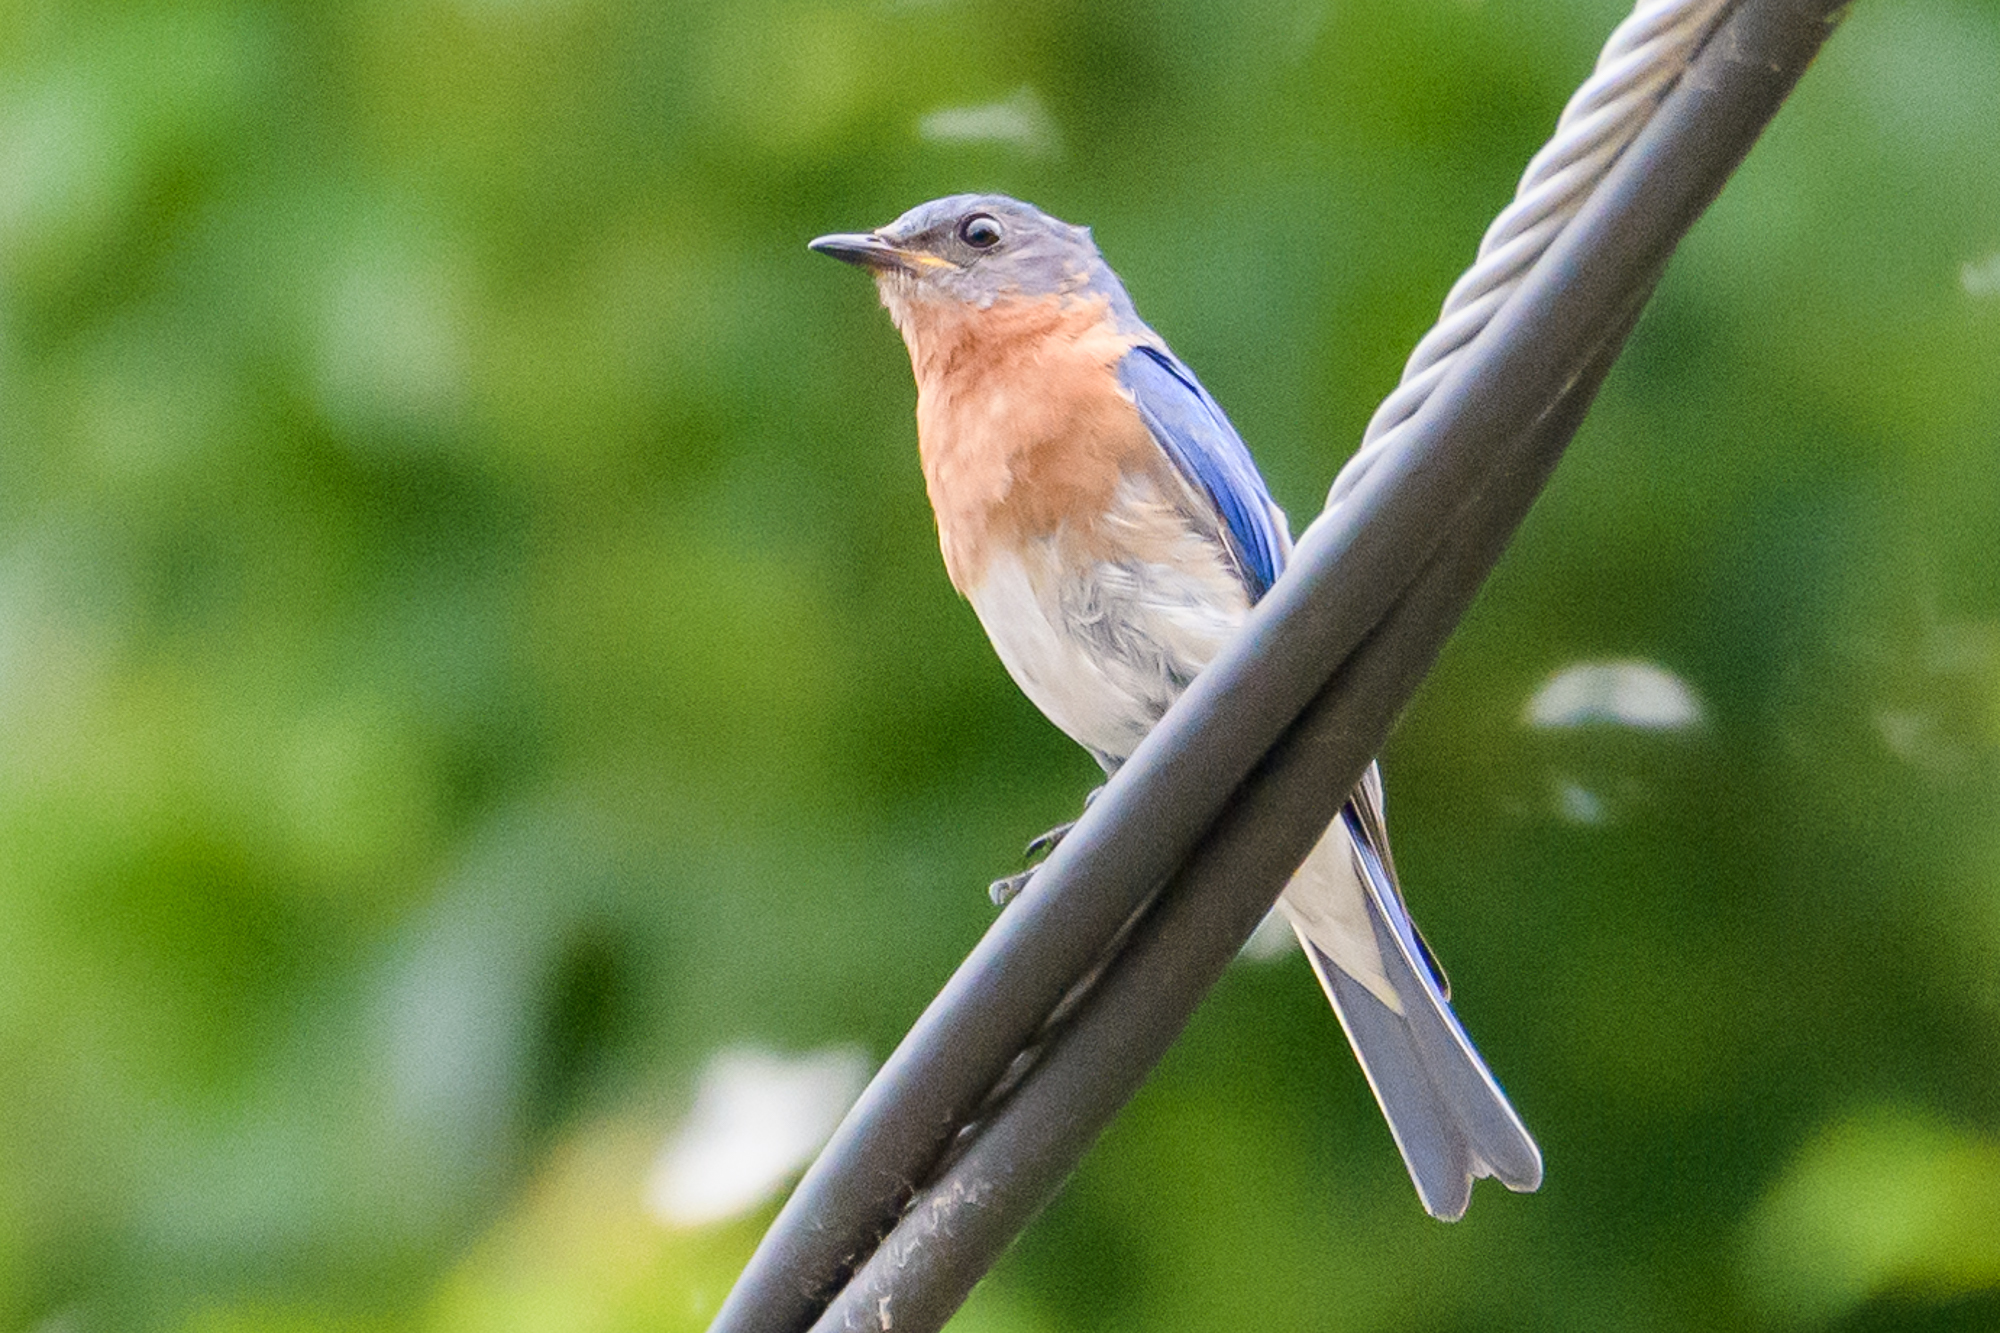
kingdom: Animalia
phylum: Chordata
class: Aves
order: Passeriformes
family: Turdidae
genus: Sialia
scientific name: Sialia sialis
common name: Eastern bluebird
